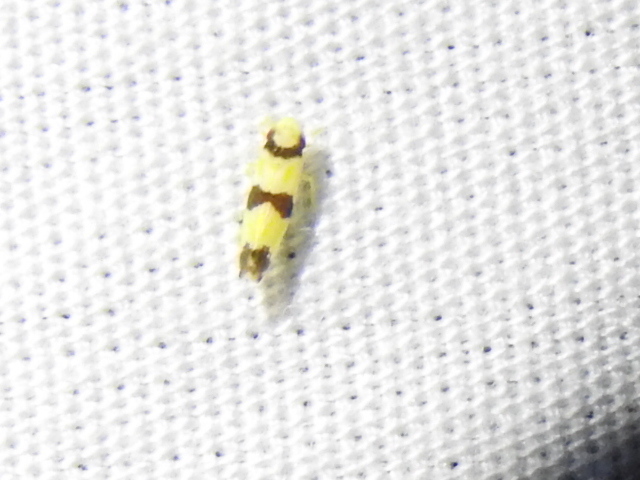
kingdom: Animalia
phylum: Arthropoda
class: Insecta
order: Hemiptera
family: Cicadellidae
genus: Erythroneura
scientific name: Erythroneura calycula
